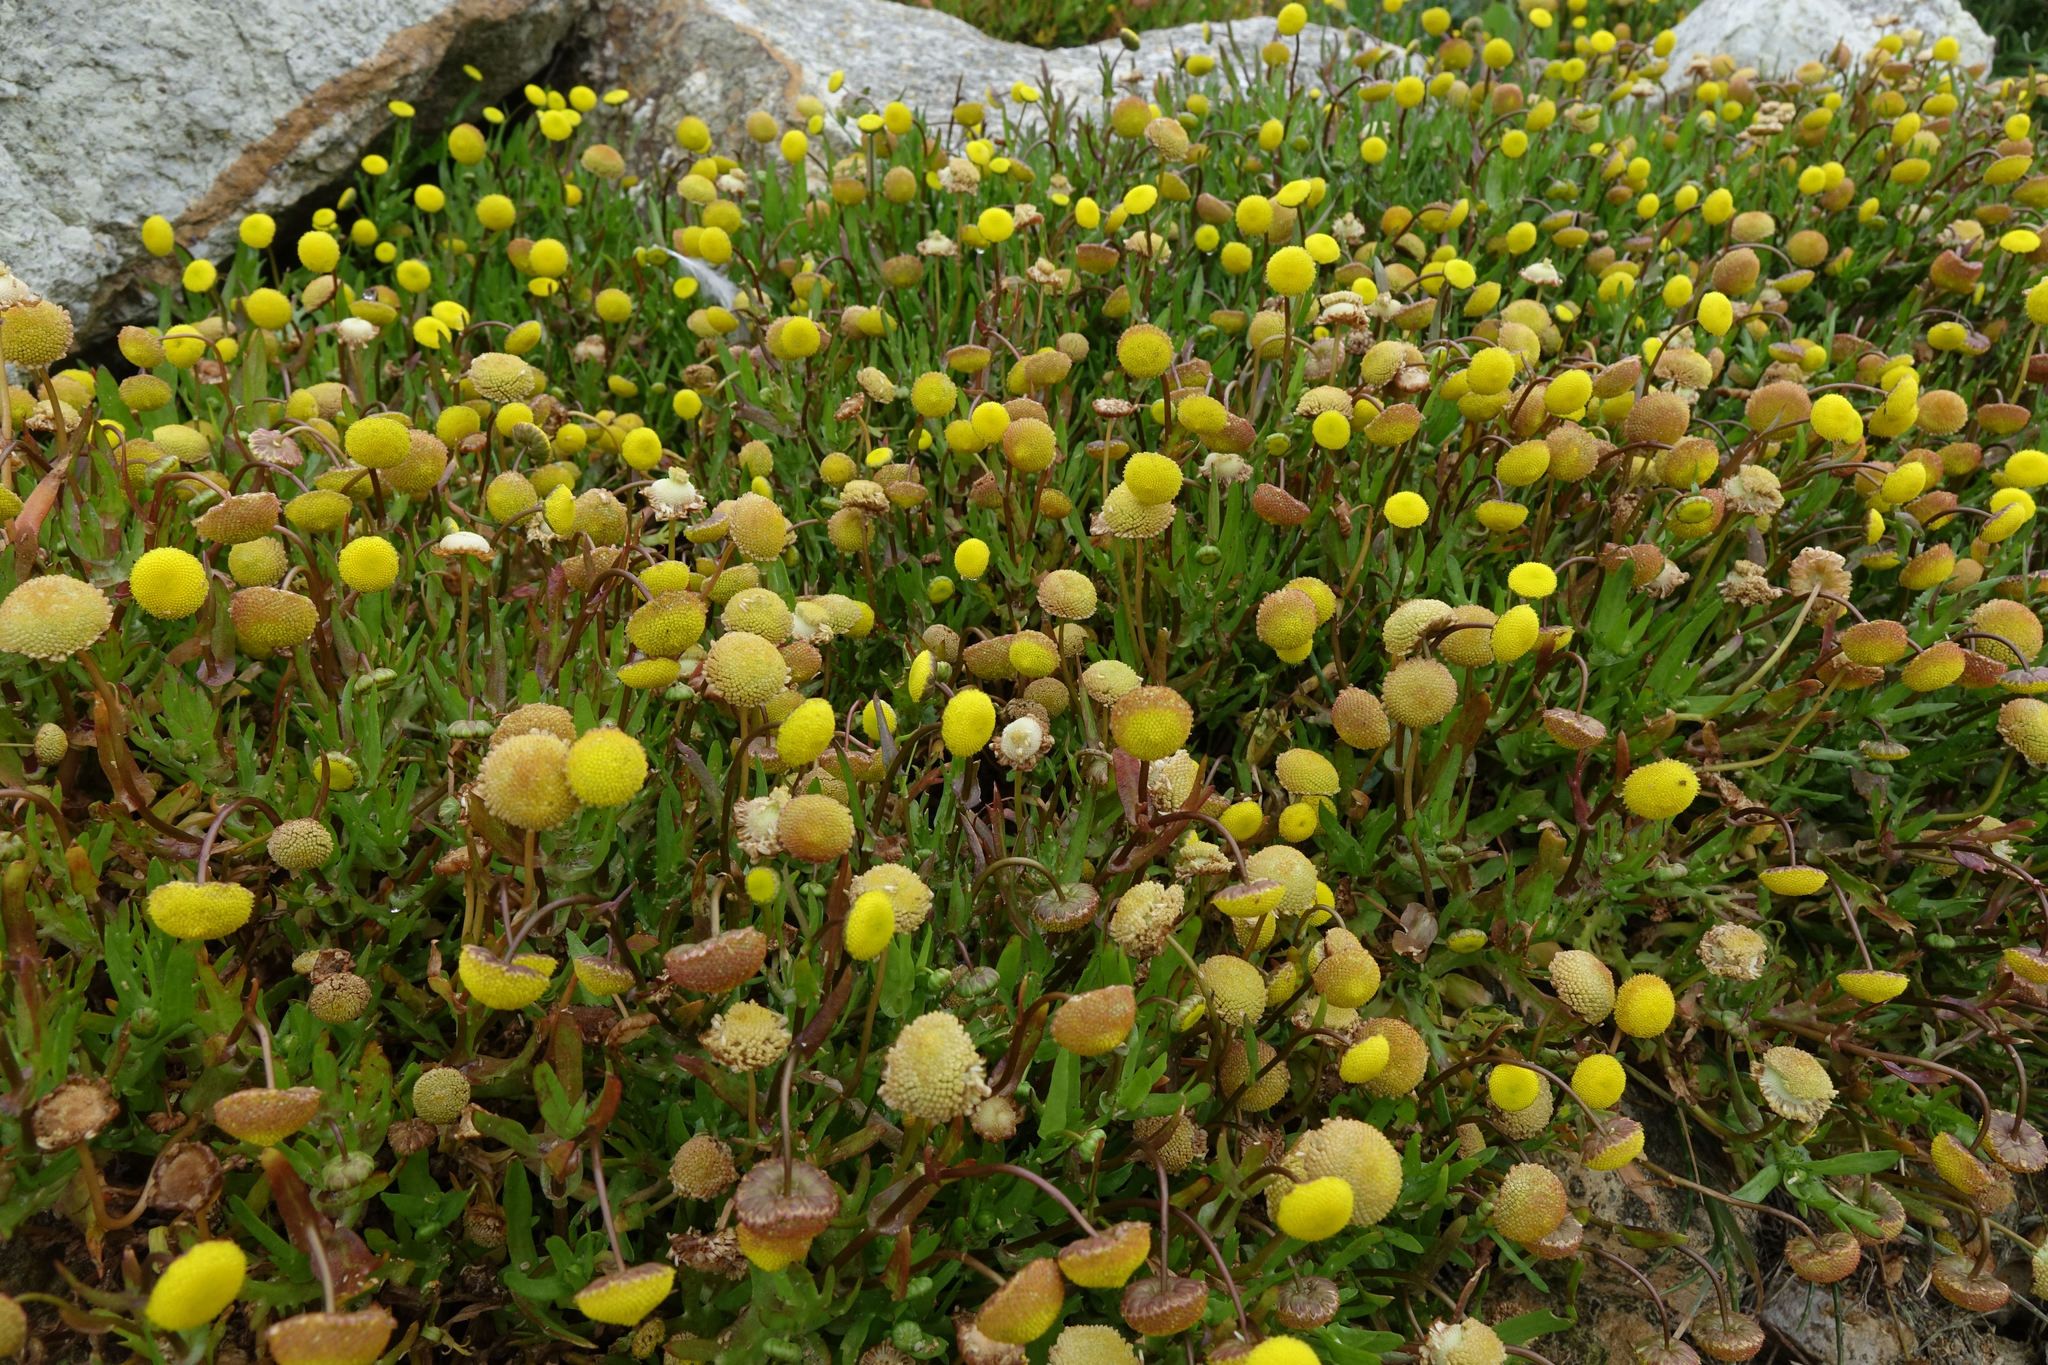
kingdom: Plantae
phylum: Tracheophyta
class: Magnoliopsida
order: Asterales
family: Asteraceae
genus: Cotula
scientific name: Cotula coronopifolia
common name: Buttonweed
